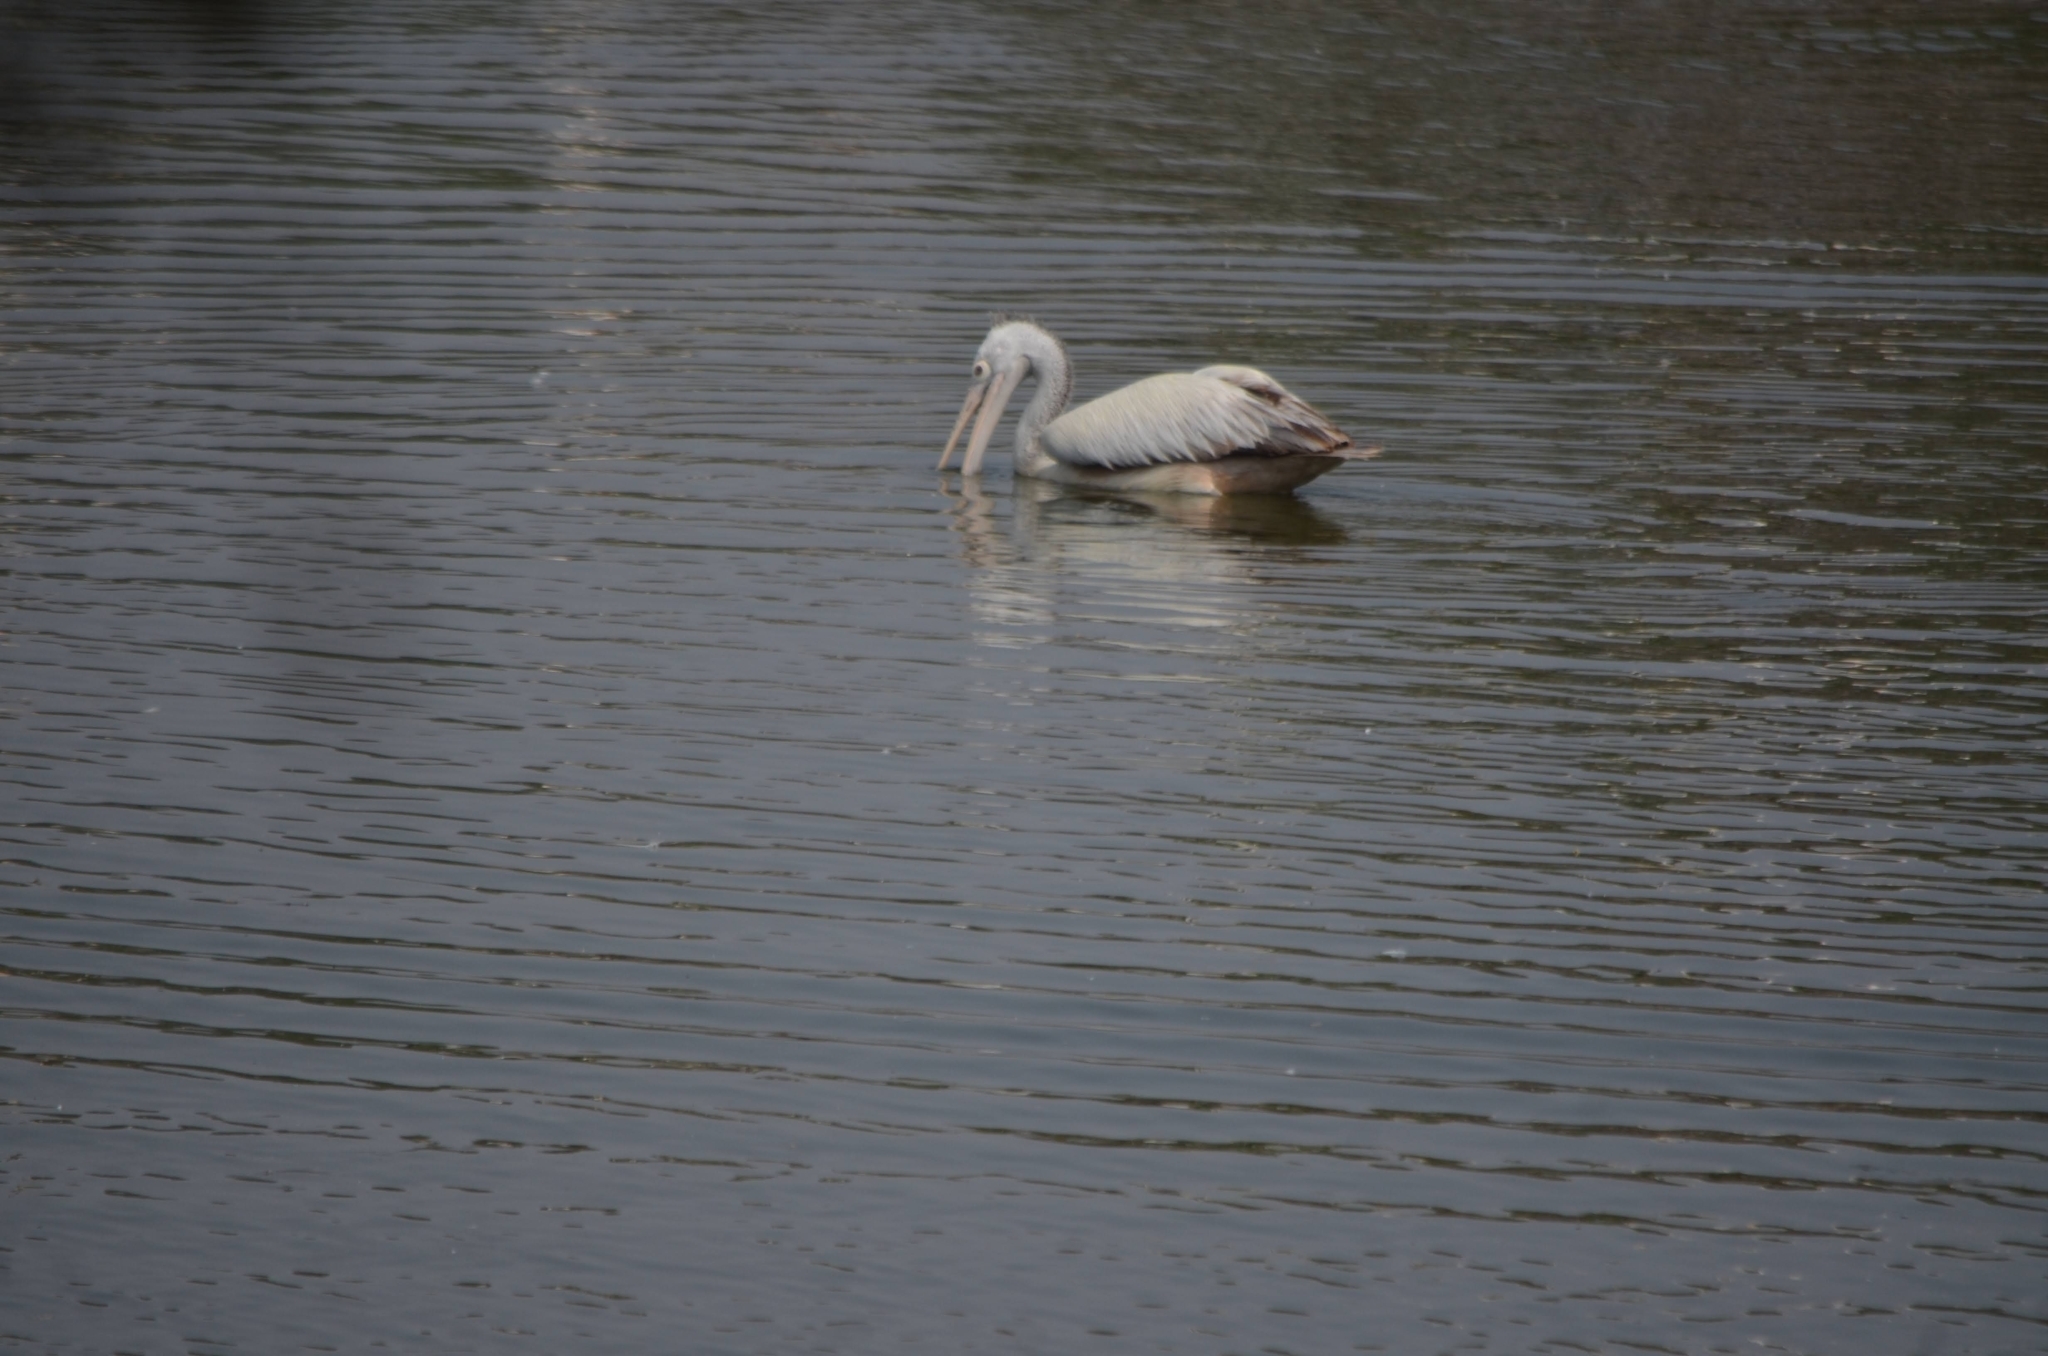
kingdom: Animalia
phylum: Chordata
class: Aves
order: Pelecaniformes
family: Pelecanidae
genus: Pelecanus
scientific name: Pelecanus philippensis
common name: Spot-billed pelican
